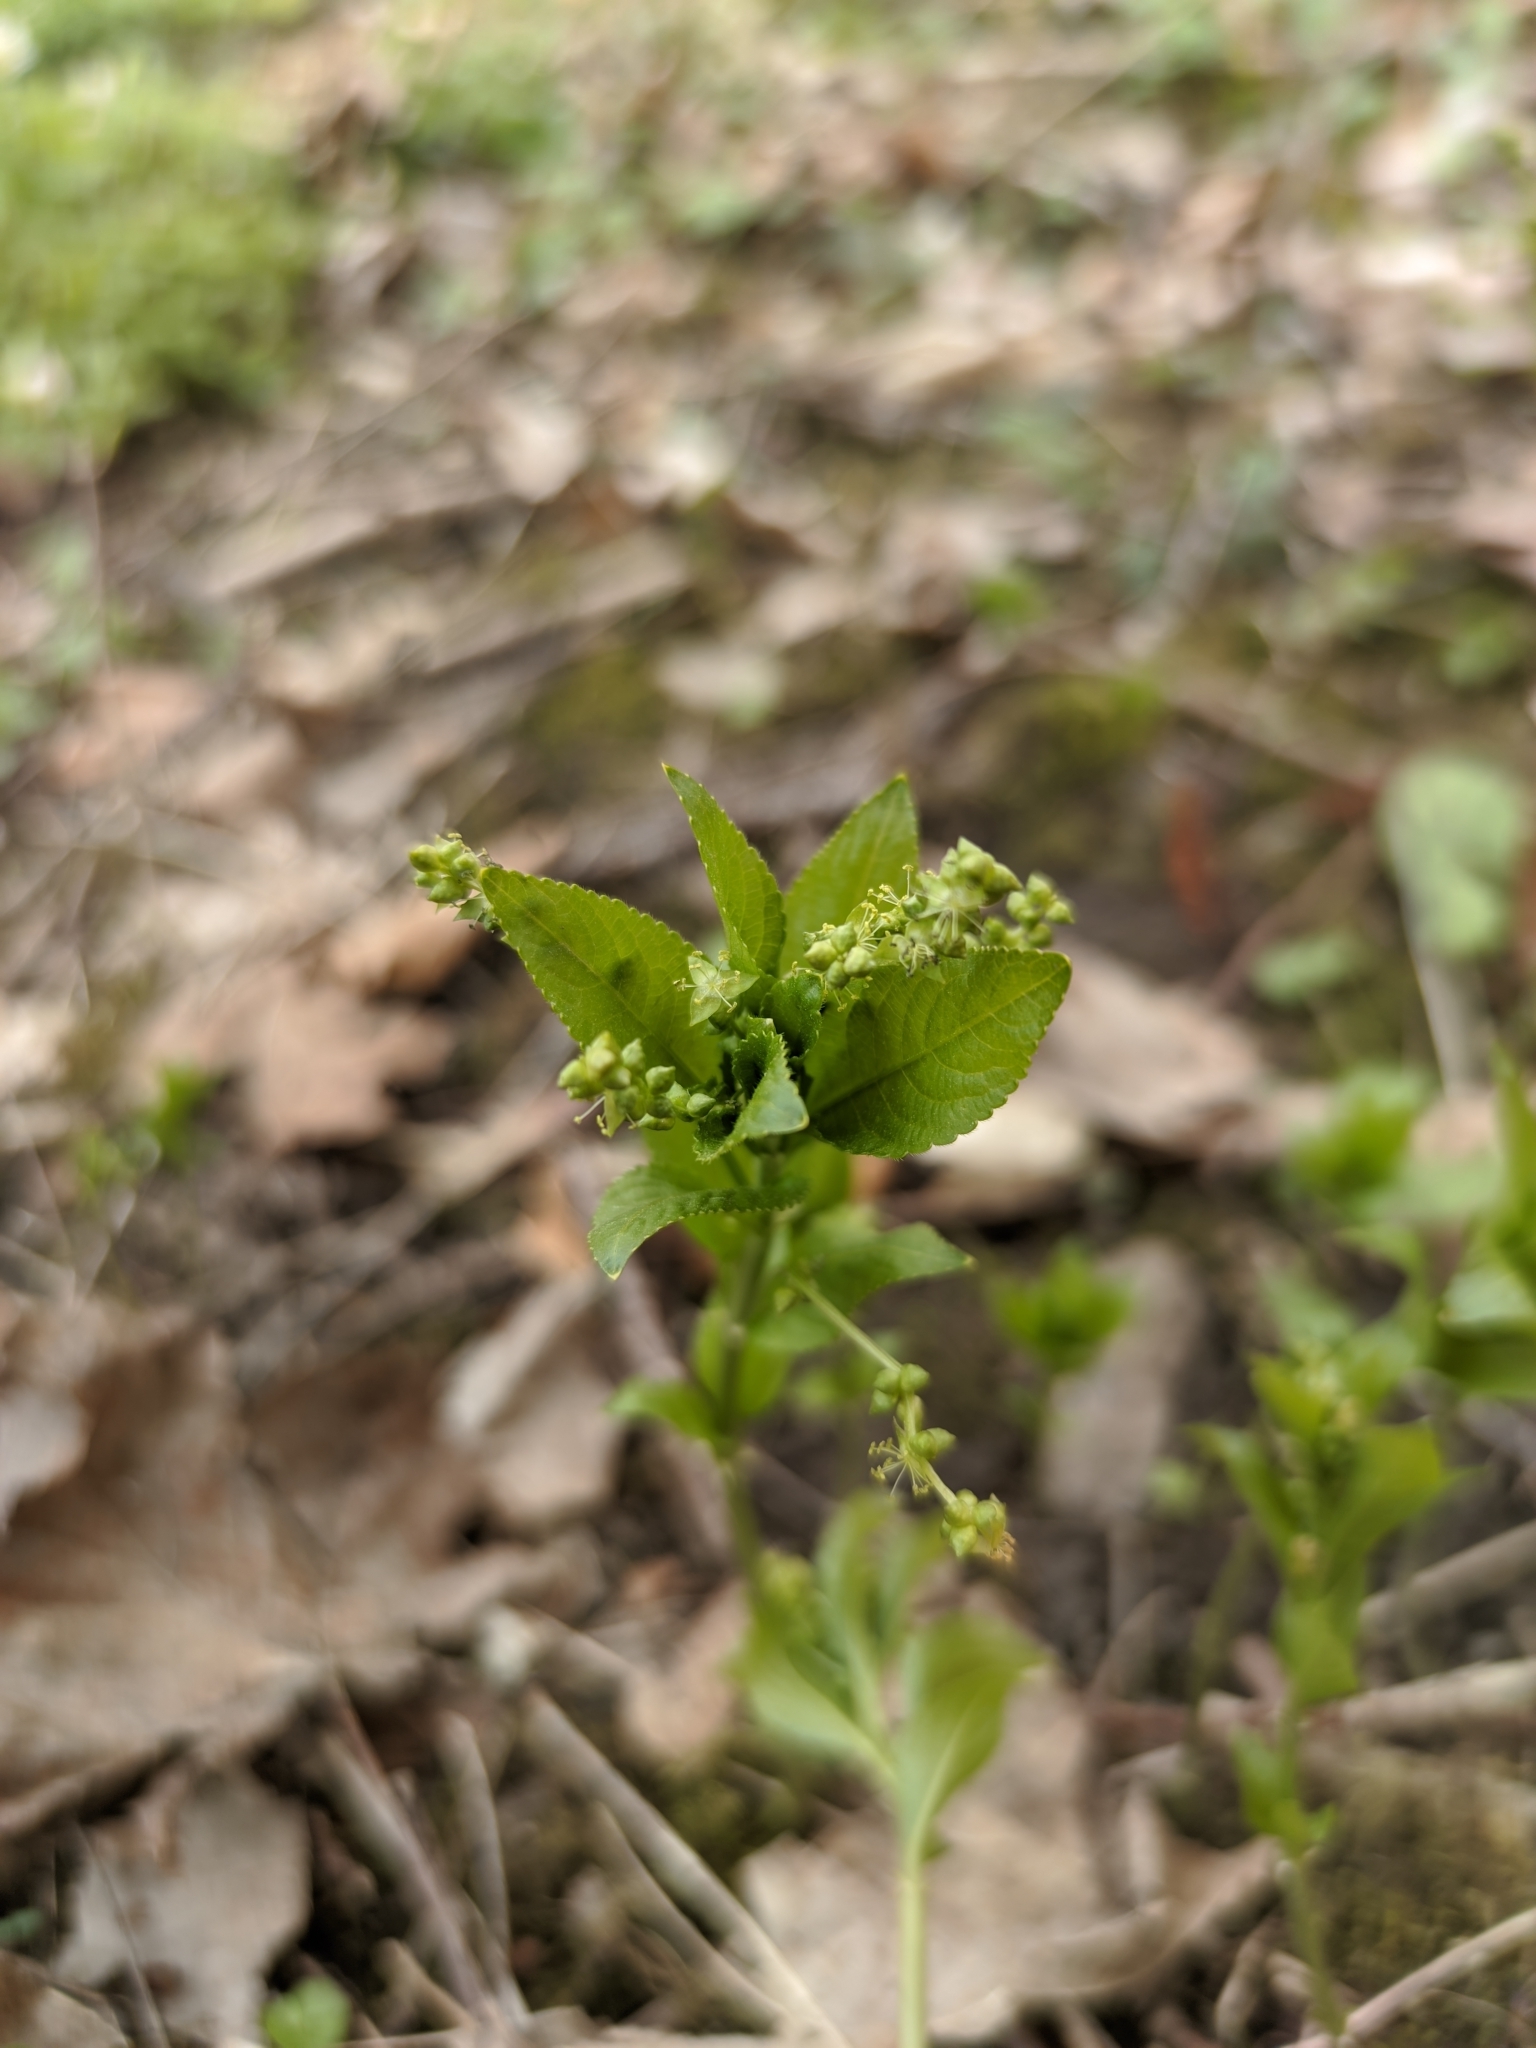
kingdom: Plantae
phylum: Tracheophyta
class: Magnoliopsida
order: Malpighiales
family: Euphorbiaceae
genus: Mercurialis
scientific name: Mercurialis perennis
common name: Dog mercury
